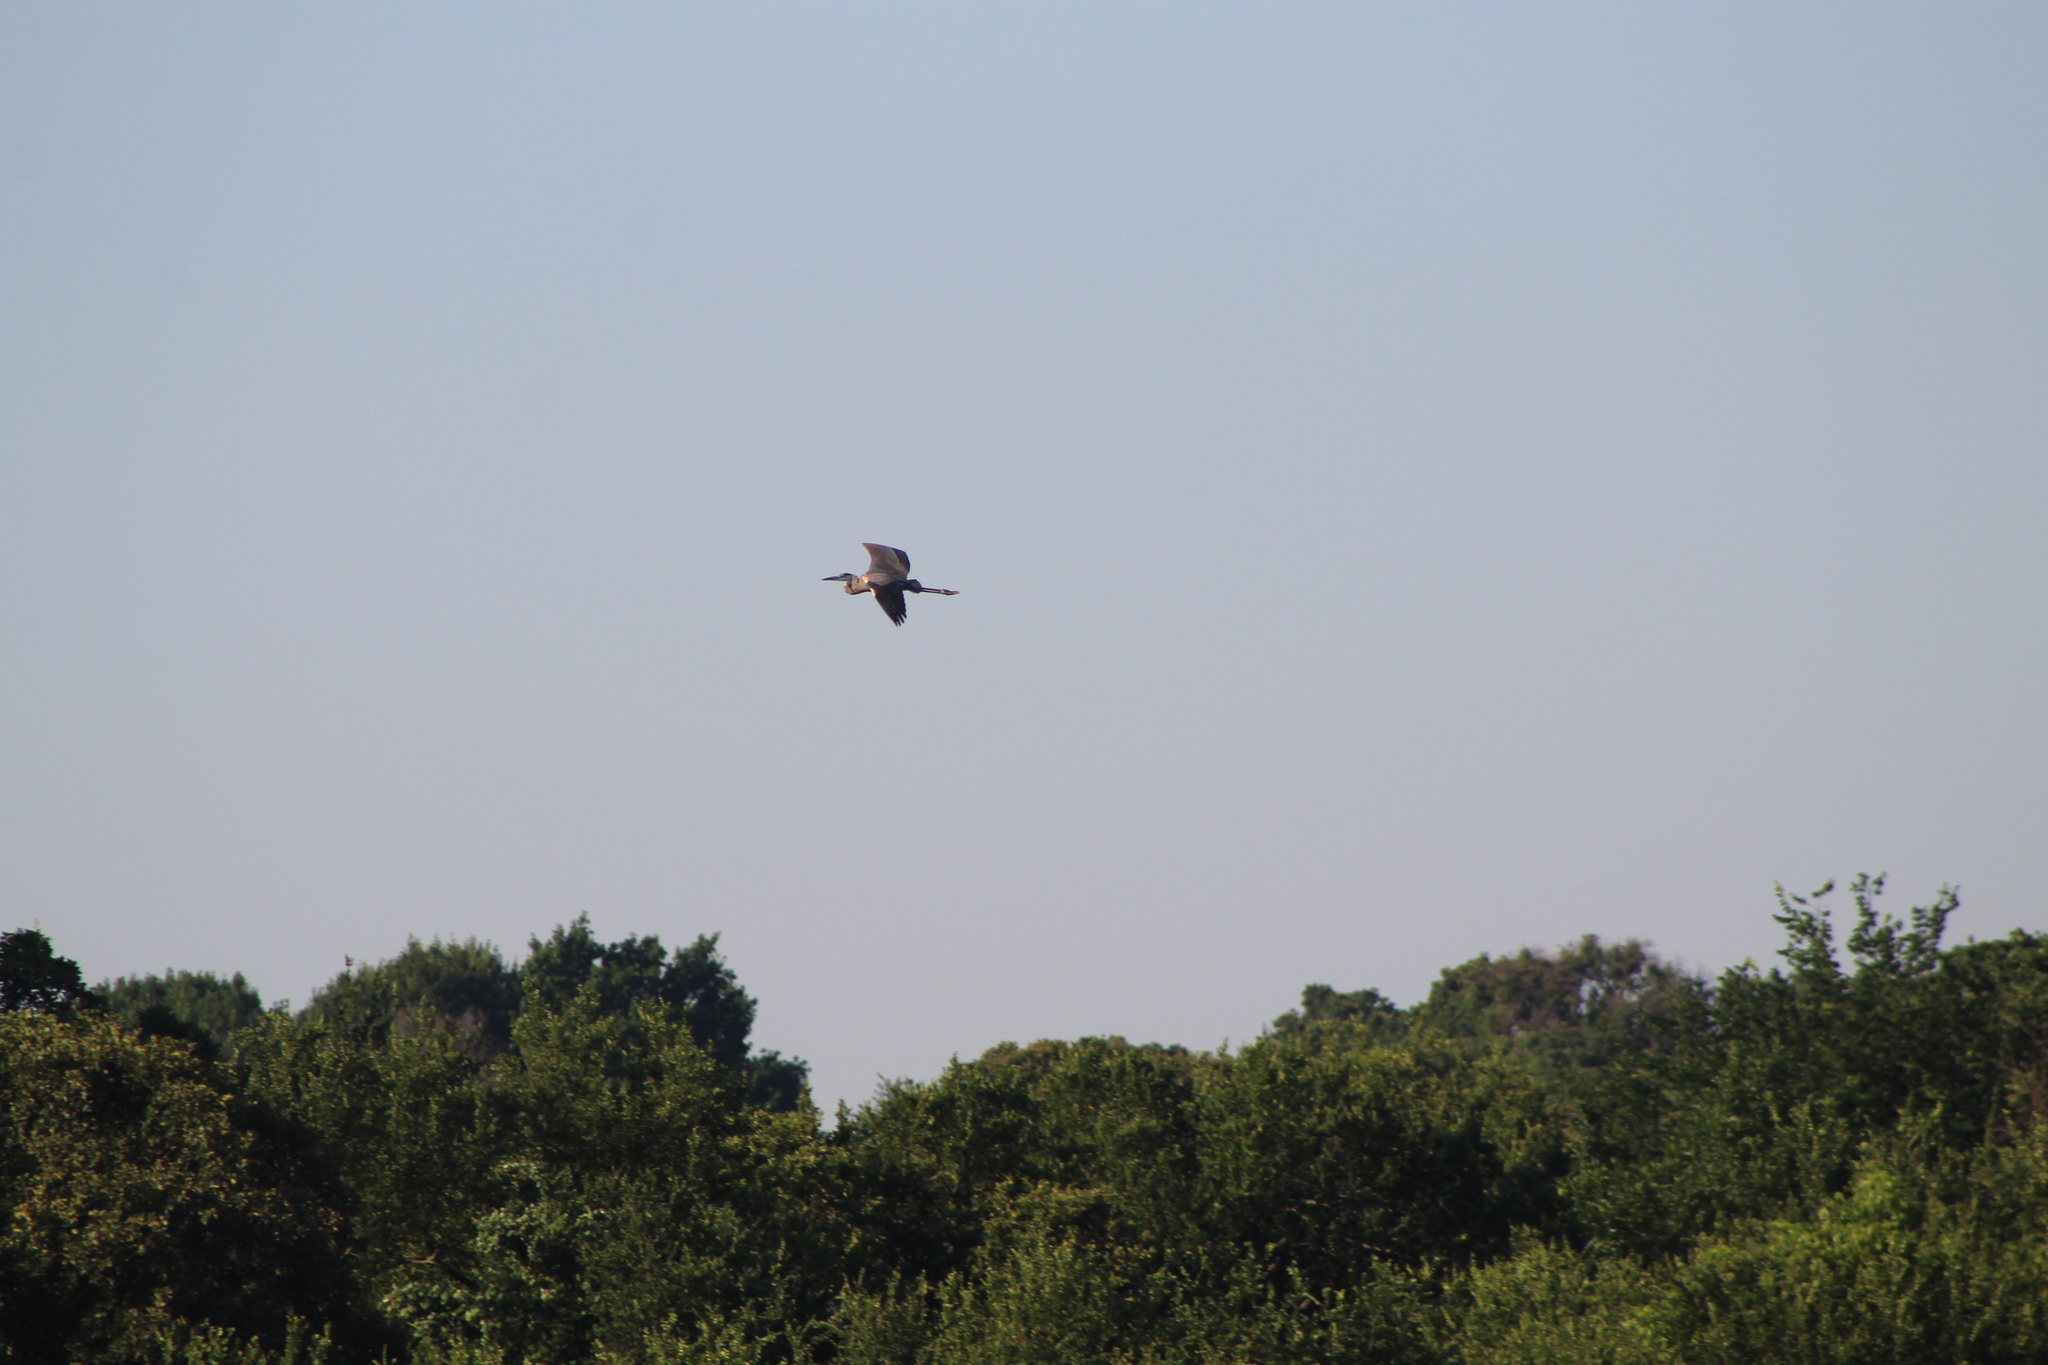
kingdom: Animalia
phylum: Chordata
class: Aves
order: Pelecaniformes
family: Ardeidae
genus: Ardea
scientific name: Ardea herodias
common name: Great blue heron
